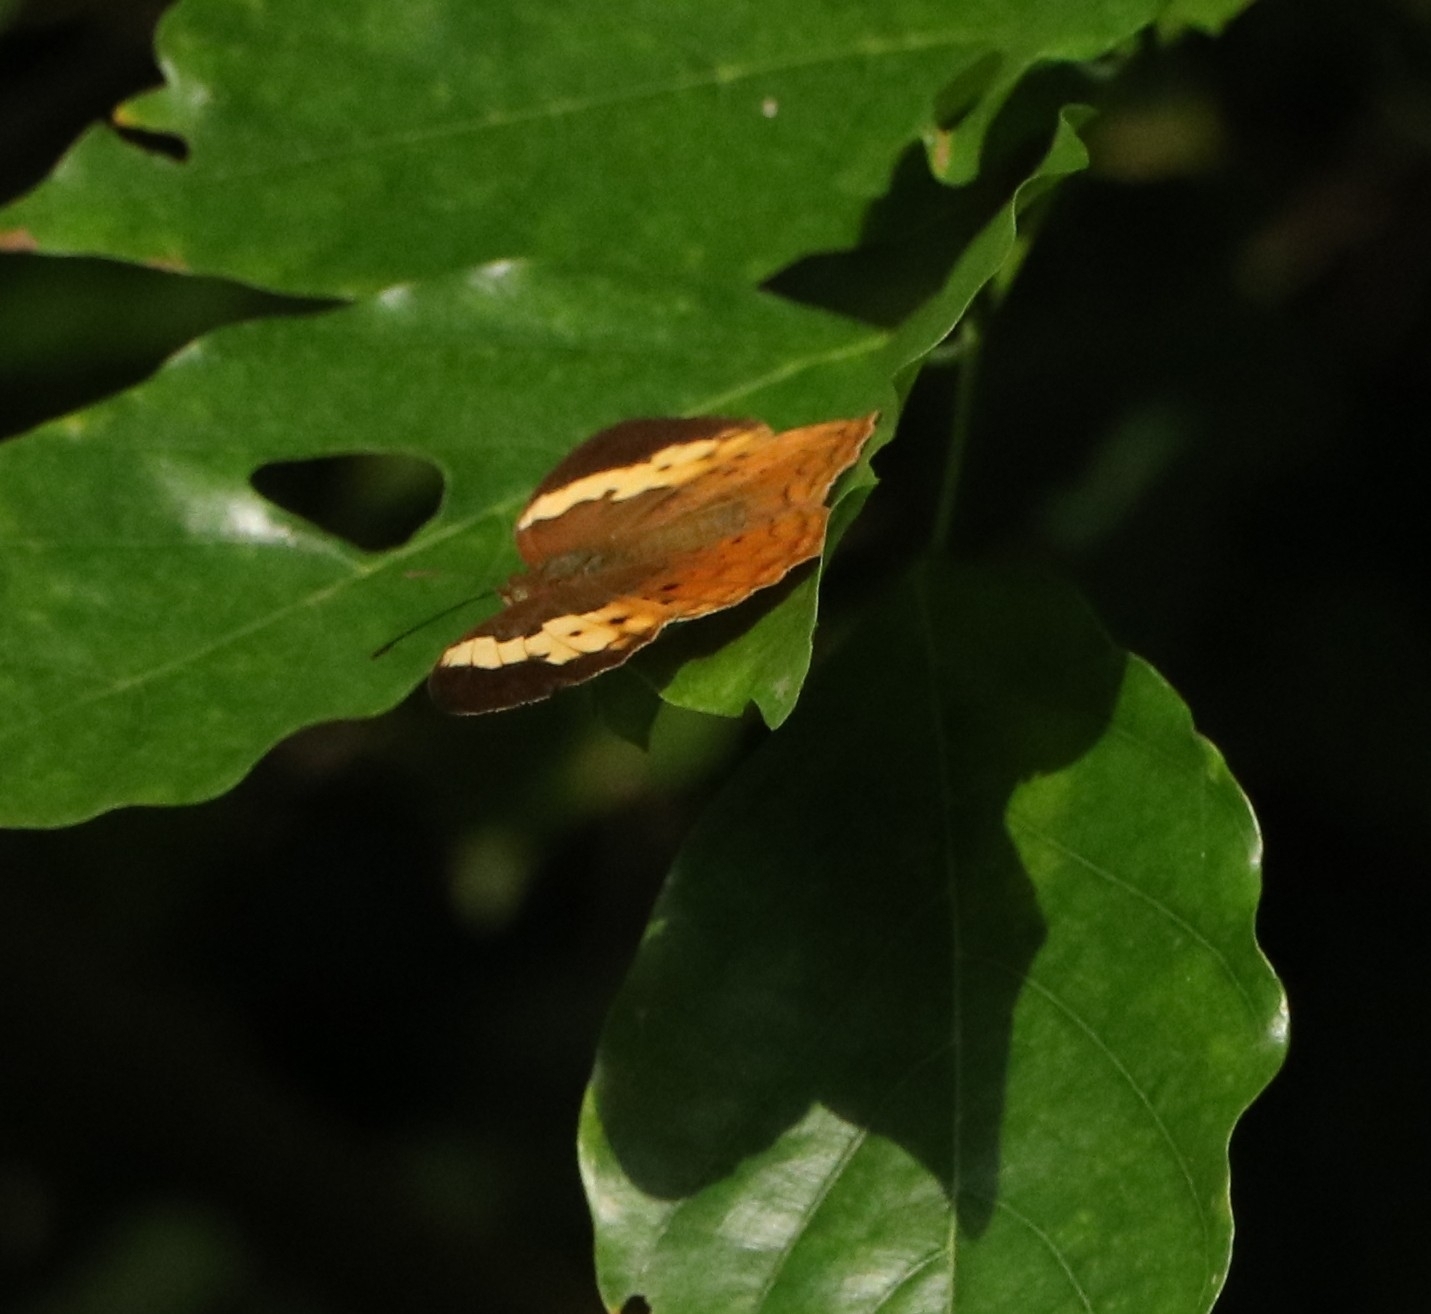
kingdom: Animalia
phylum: Arthropoda
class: Insecta
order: Lepidoptera
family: Nymphalidae
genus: Cupha
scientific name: Cupha erymanthis
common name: Rustic
